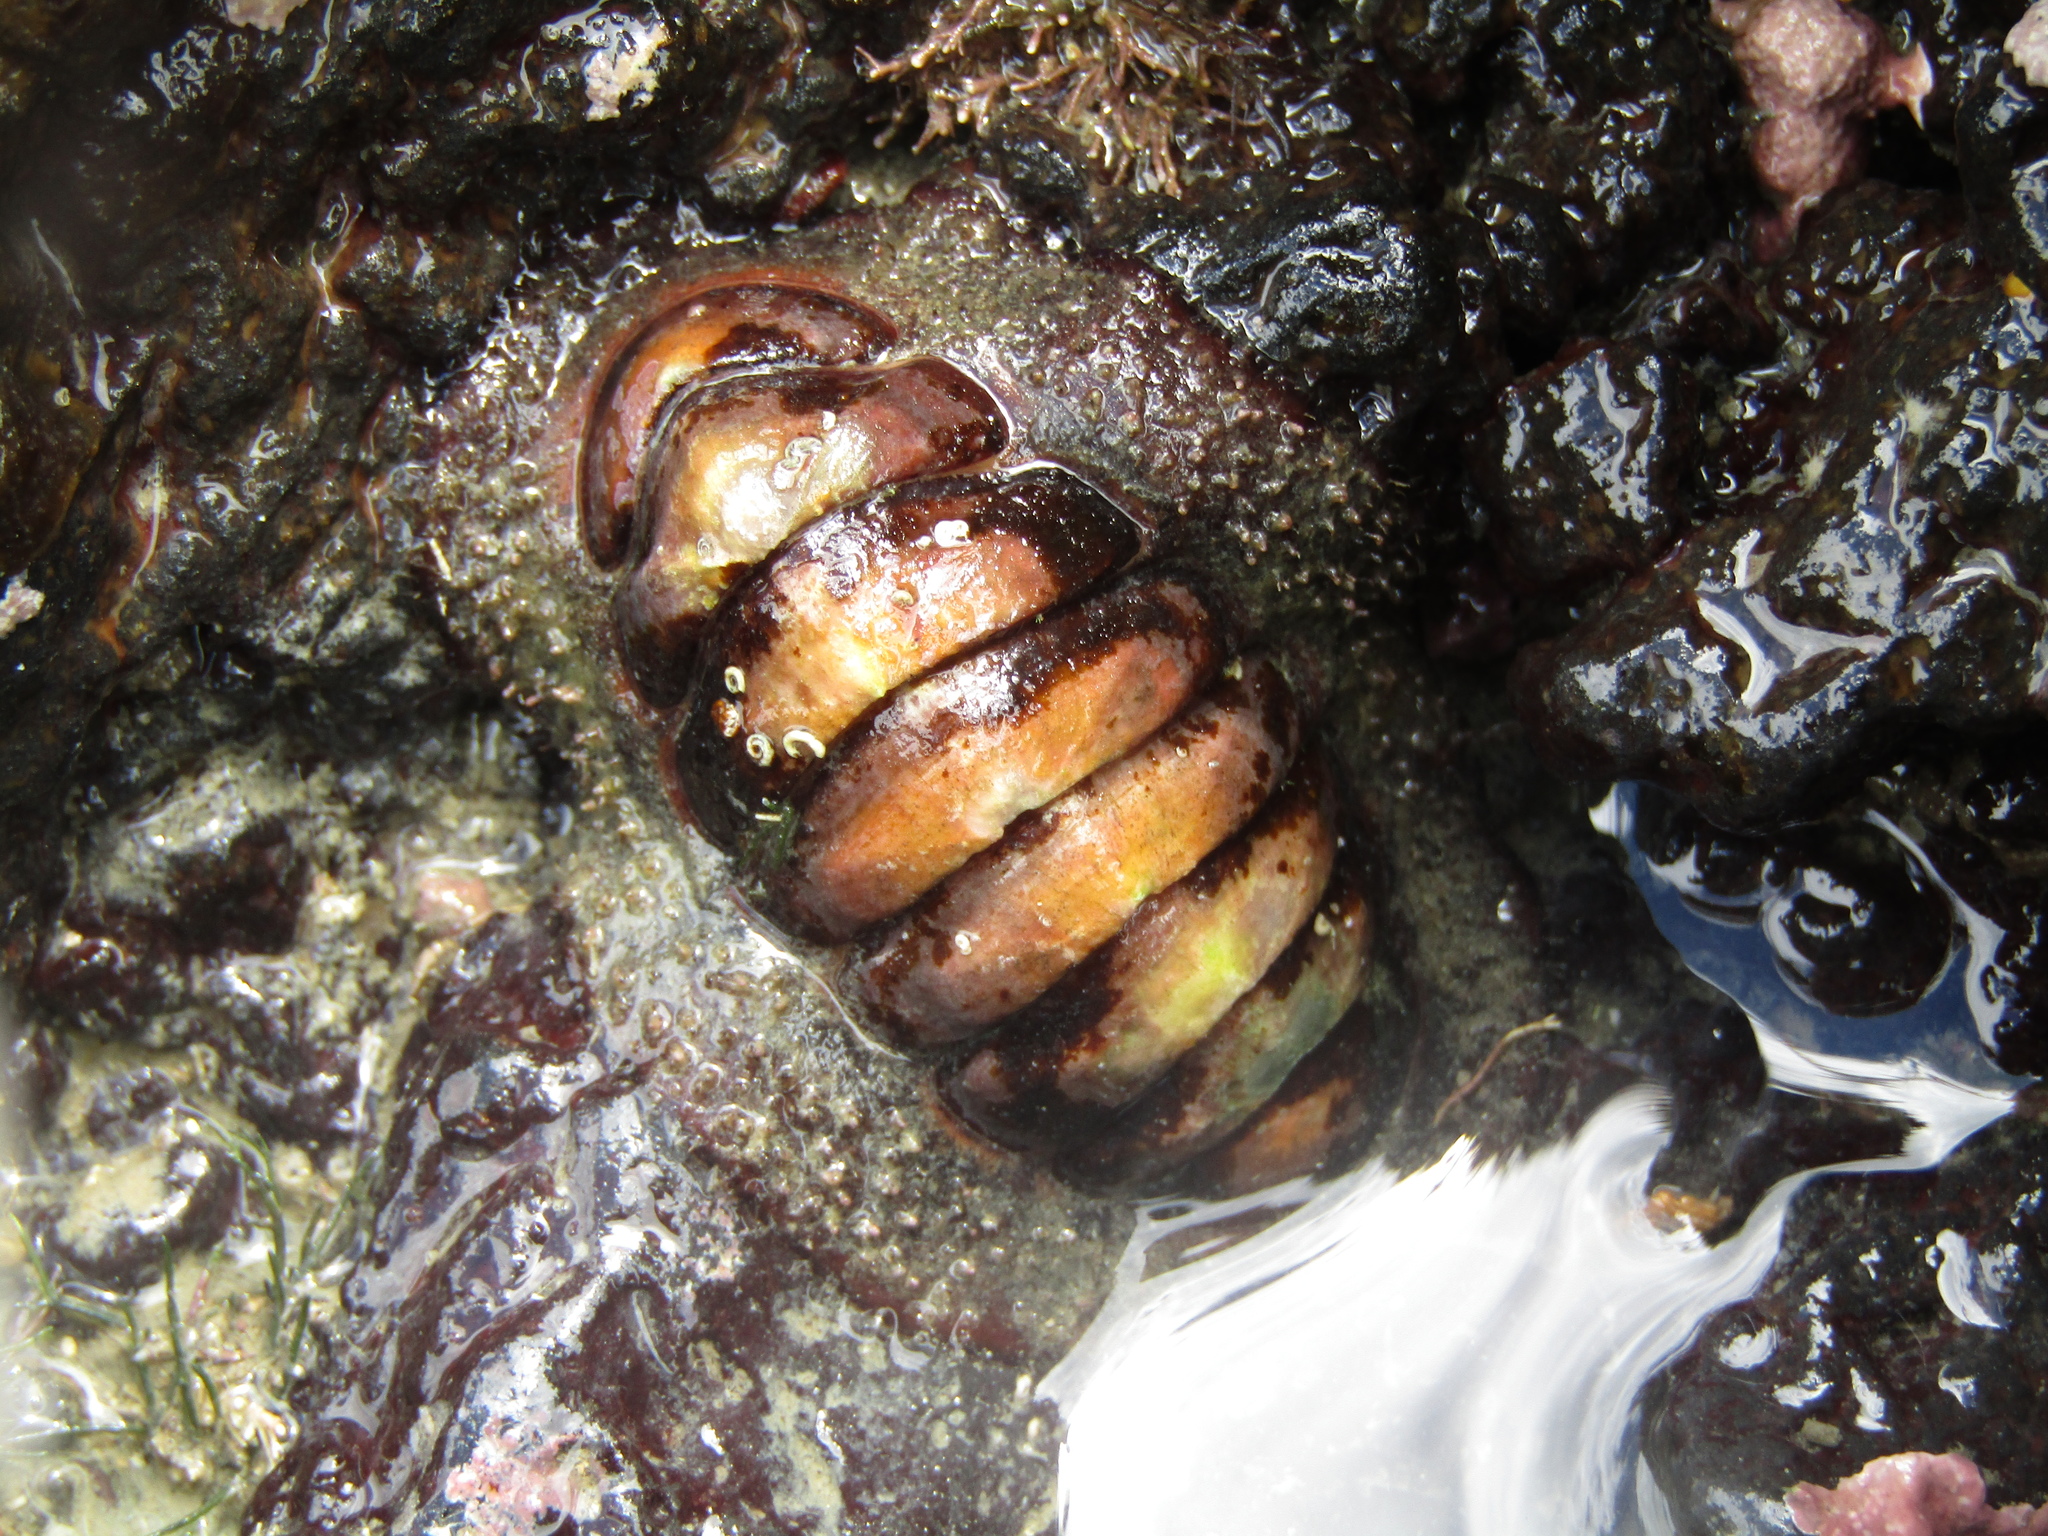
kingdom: Animalia
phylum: Mollusca
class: Polyplacophora
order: Callochitonida
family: Callochitonidae
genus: Eudoxochiton
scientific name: Eudoxochiton nobilis
